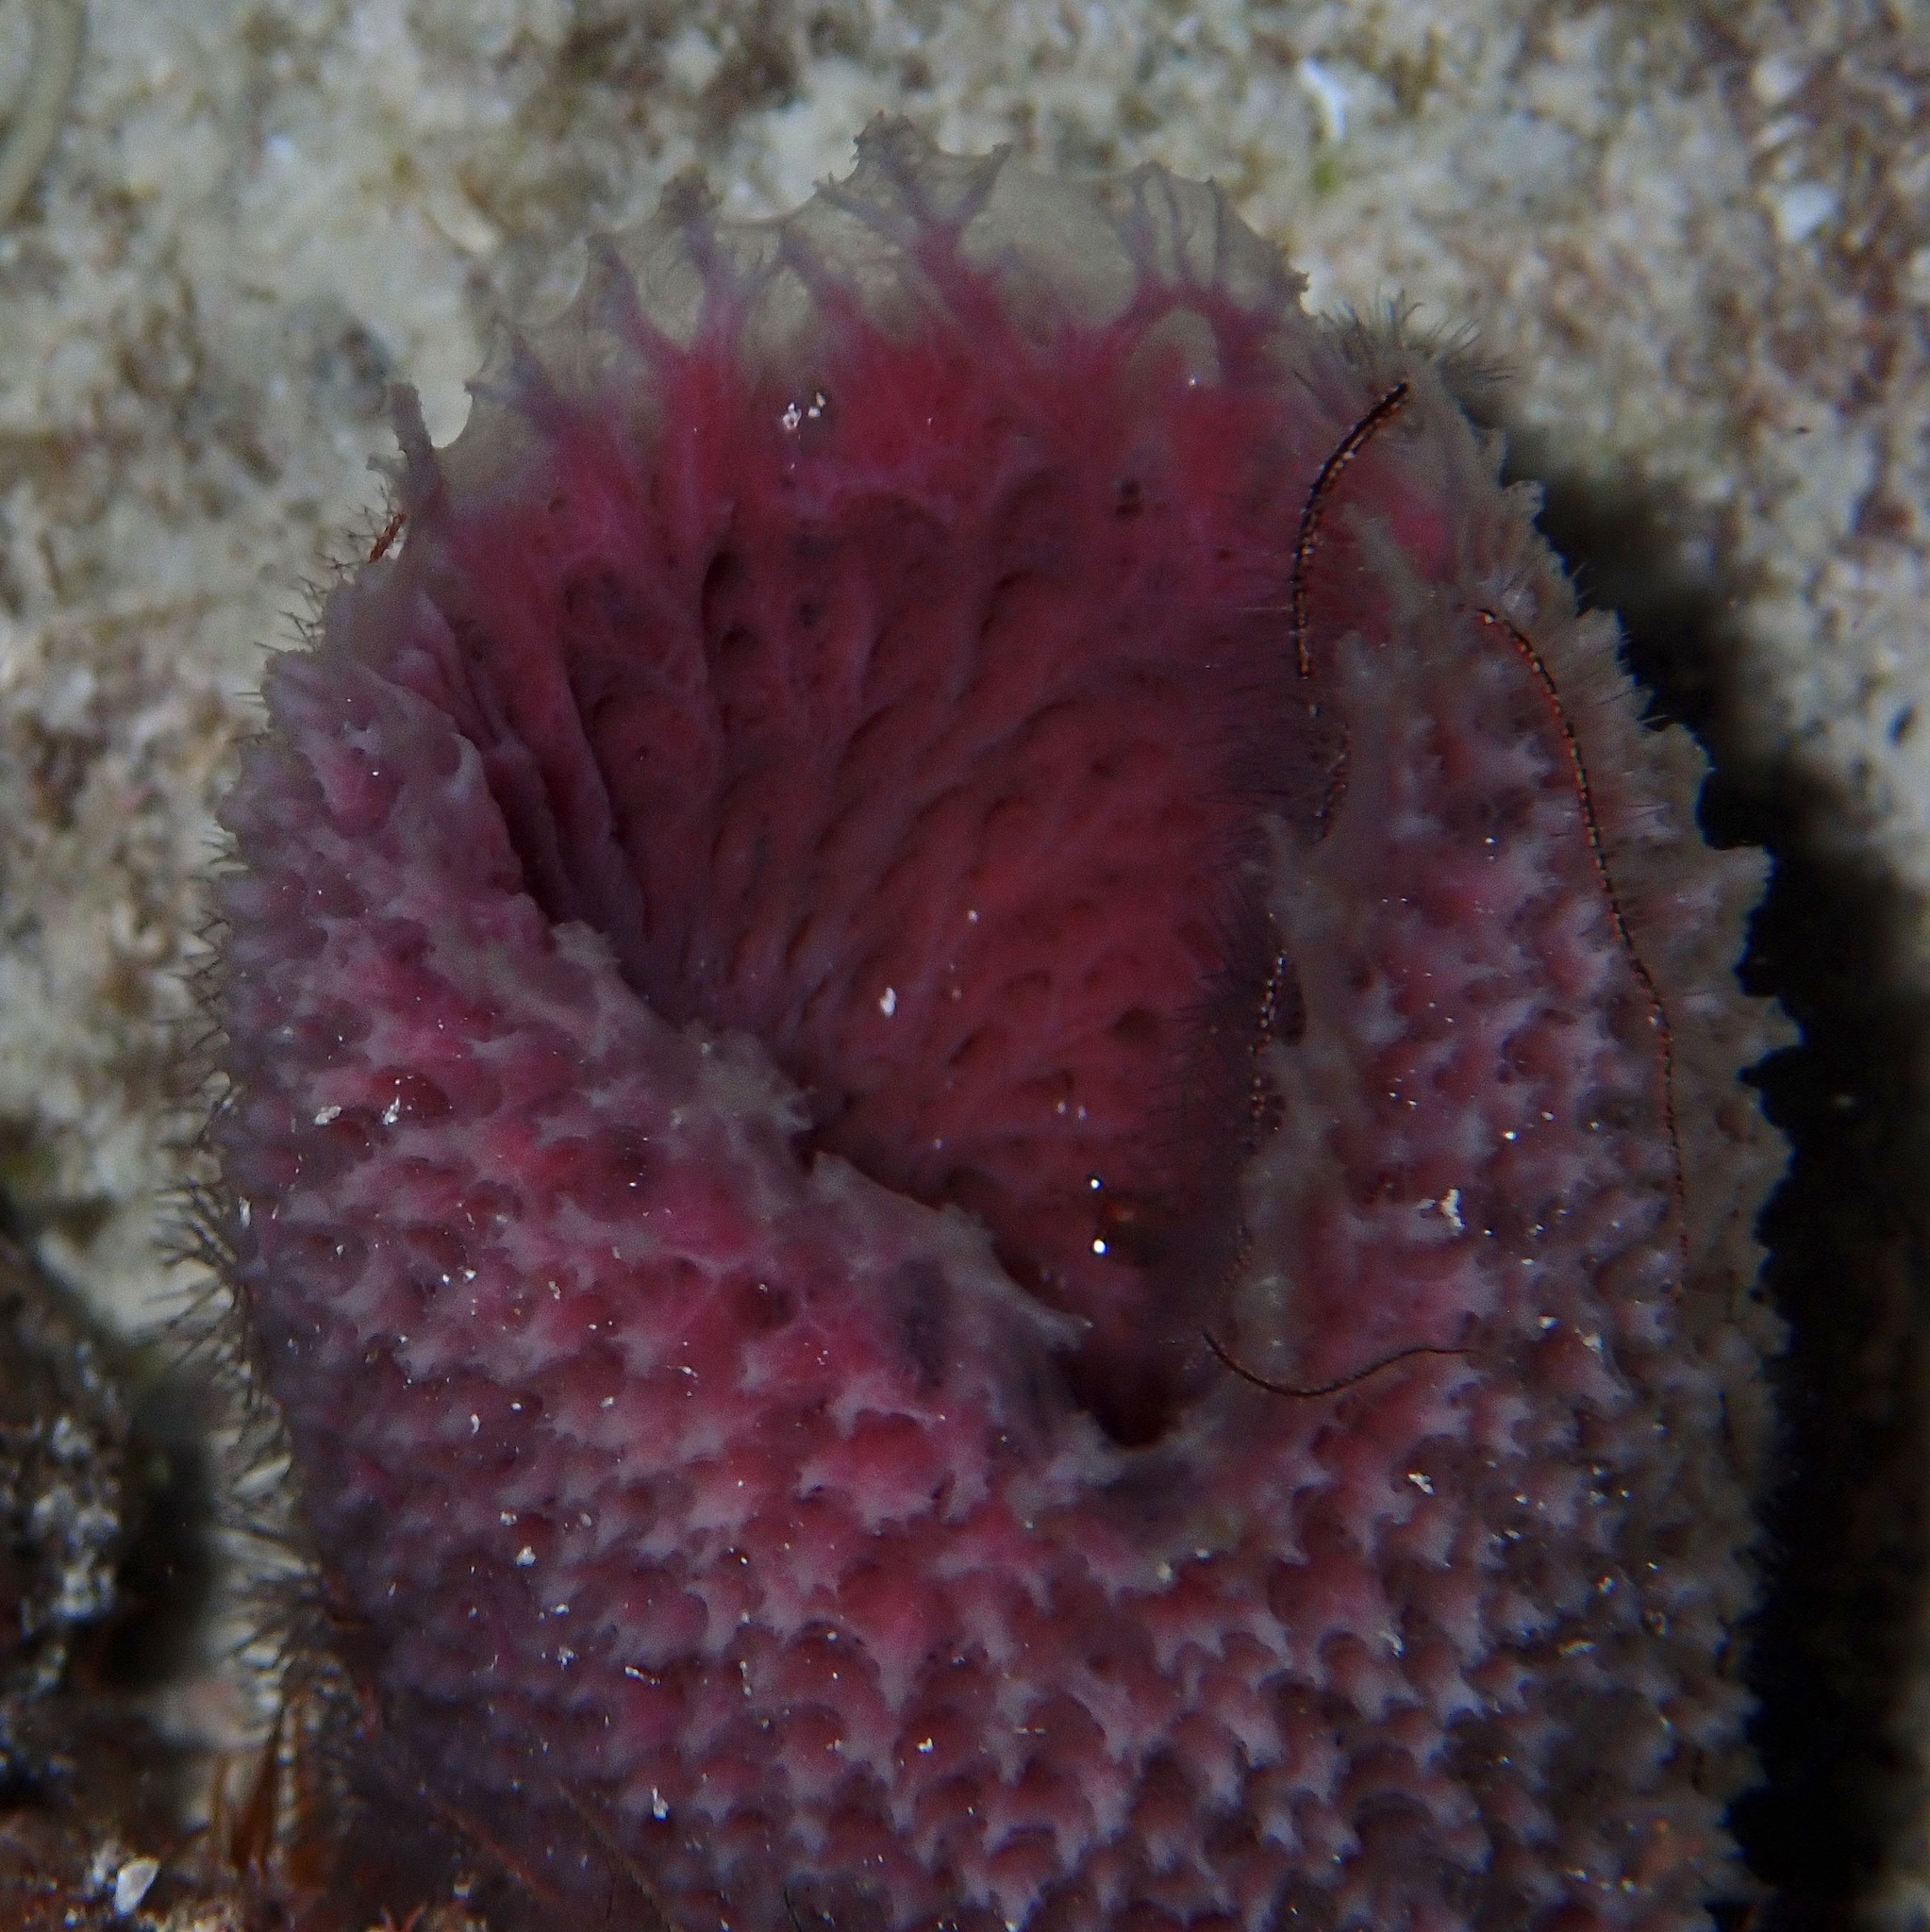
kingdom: Animalia
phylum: Porifera
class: Demospongiae
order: Haplosclerida
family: Niphatidae
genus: Niphates
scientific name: Niphates digitalis
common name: Pink vase sponge
